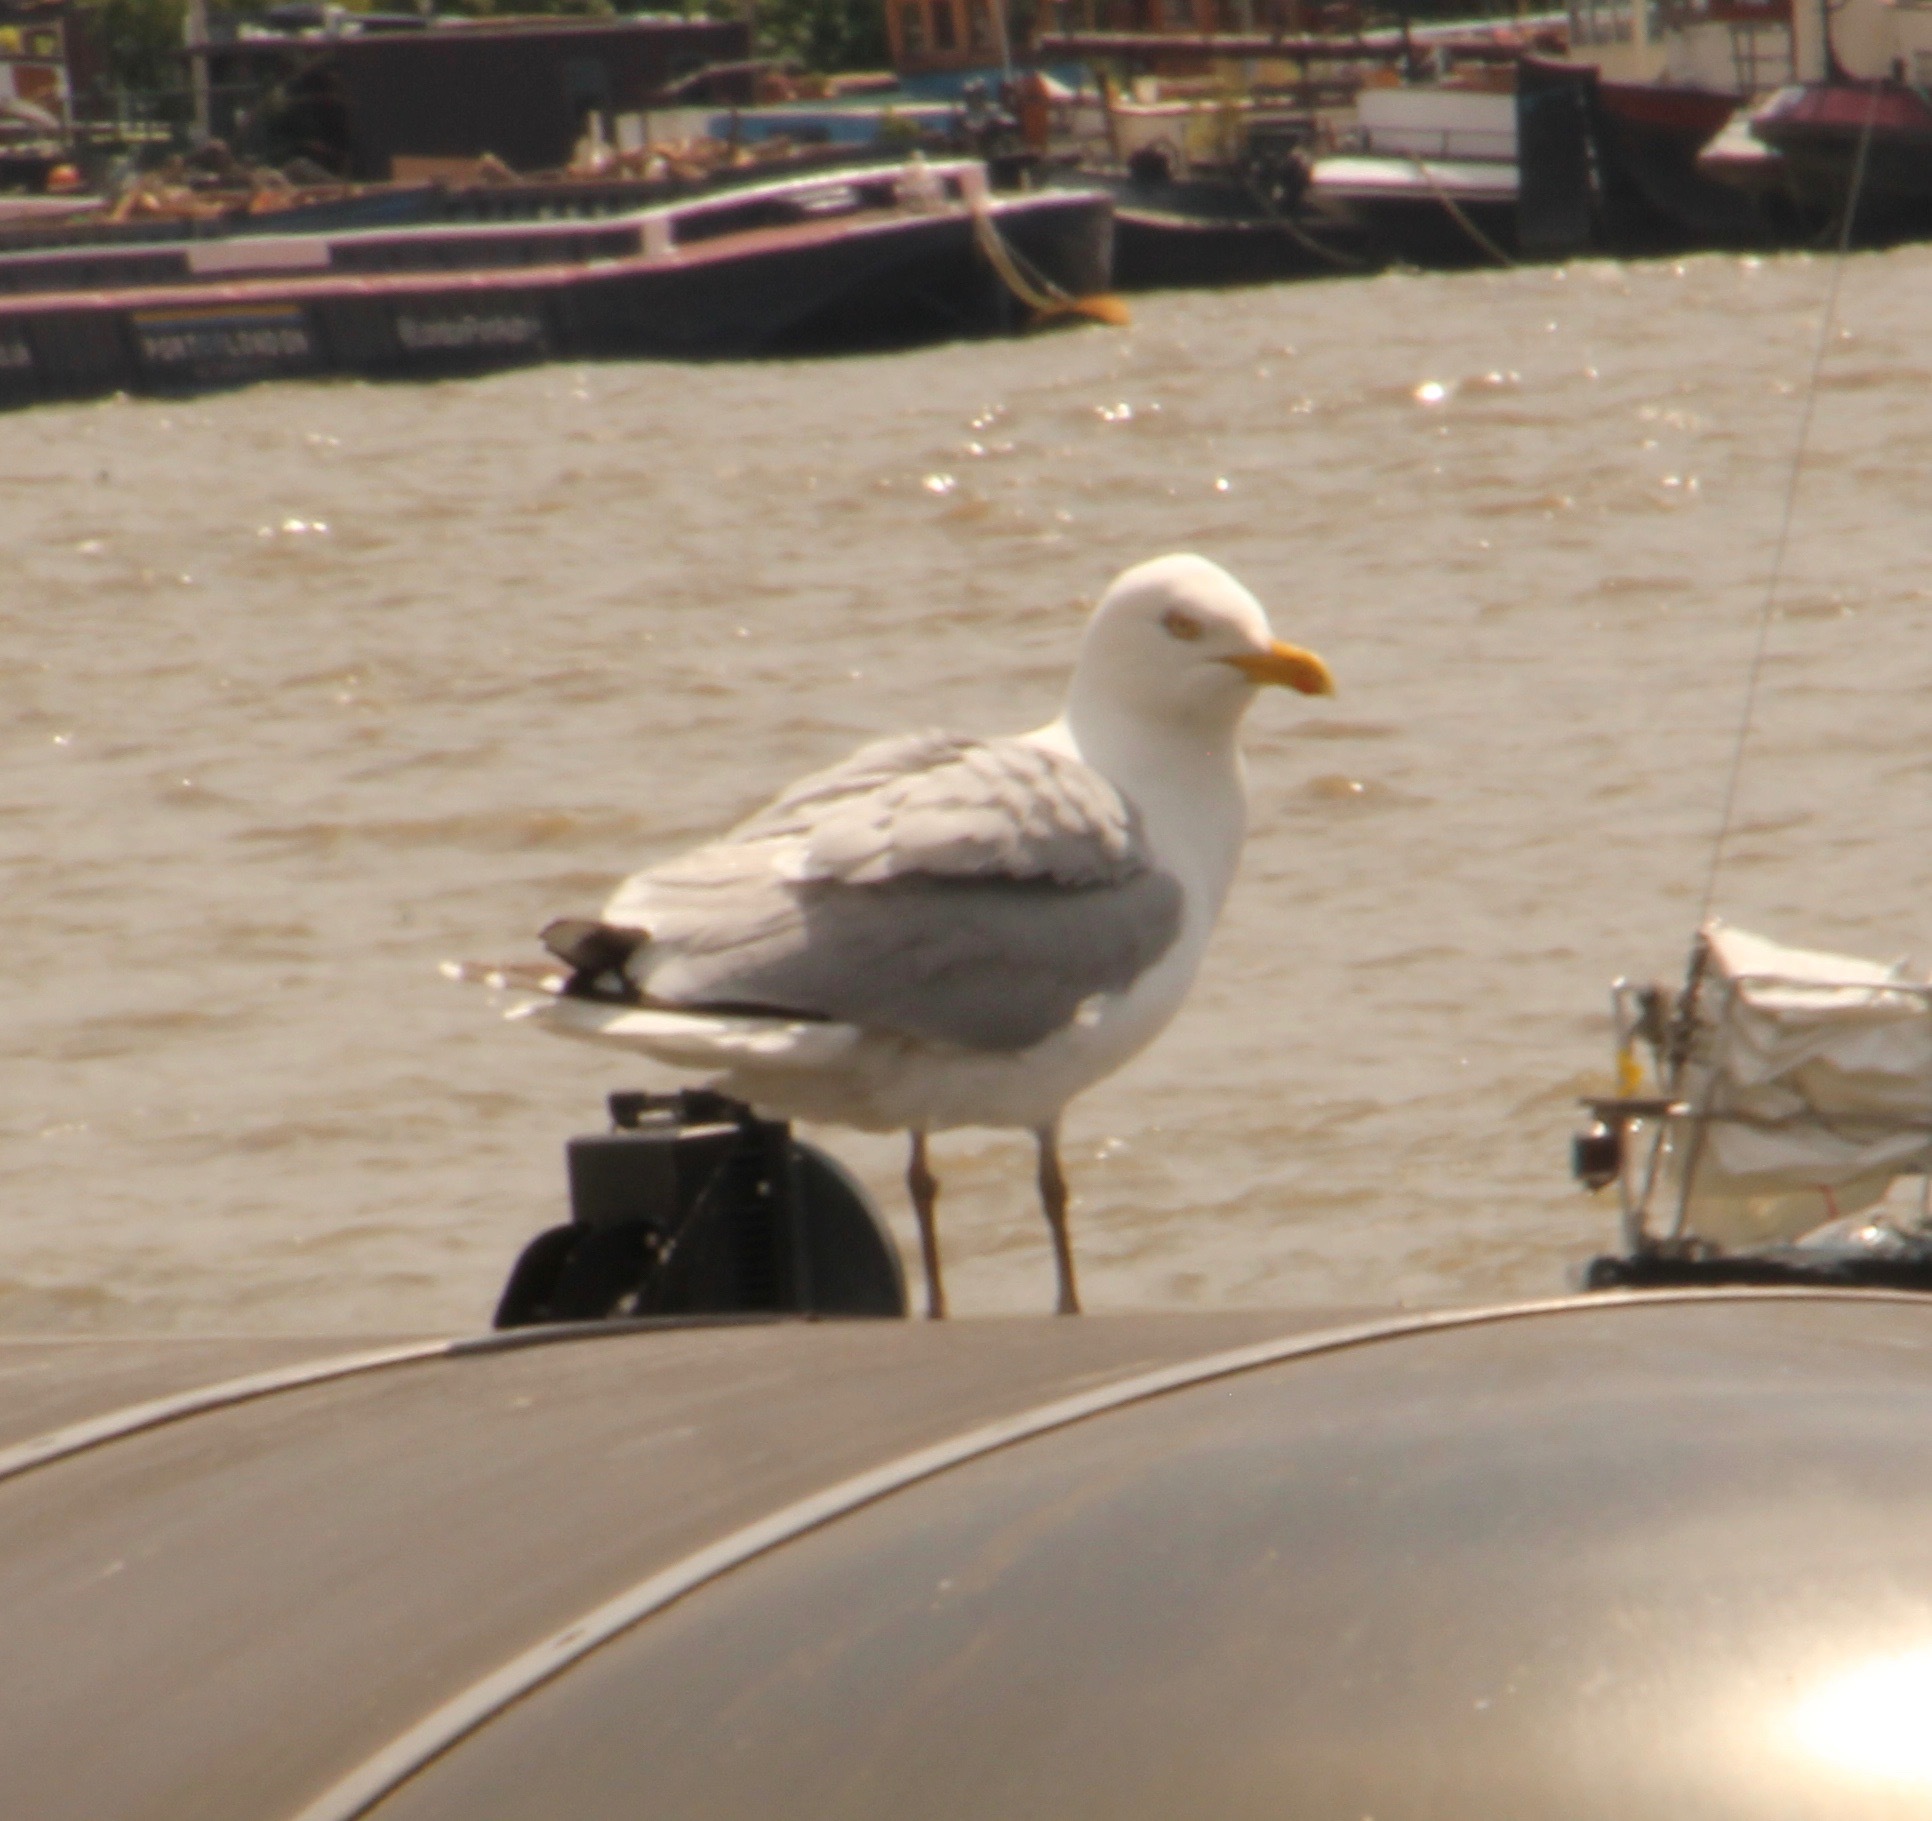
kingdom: Animalia
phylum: Chordata
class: Aves
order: Charadriiformes
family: Laridae
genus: Larus
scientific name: Larus argentatus
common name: Herring gull
